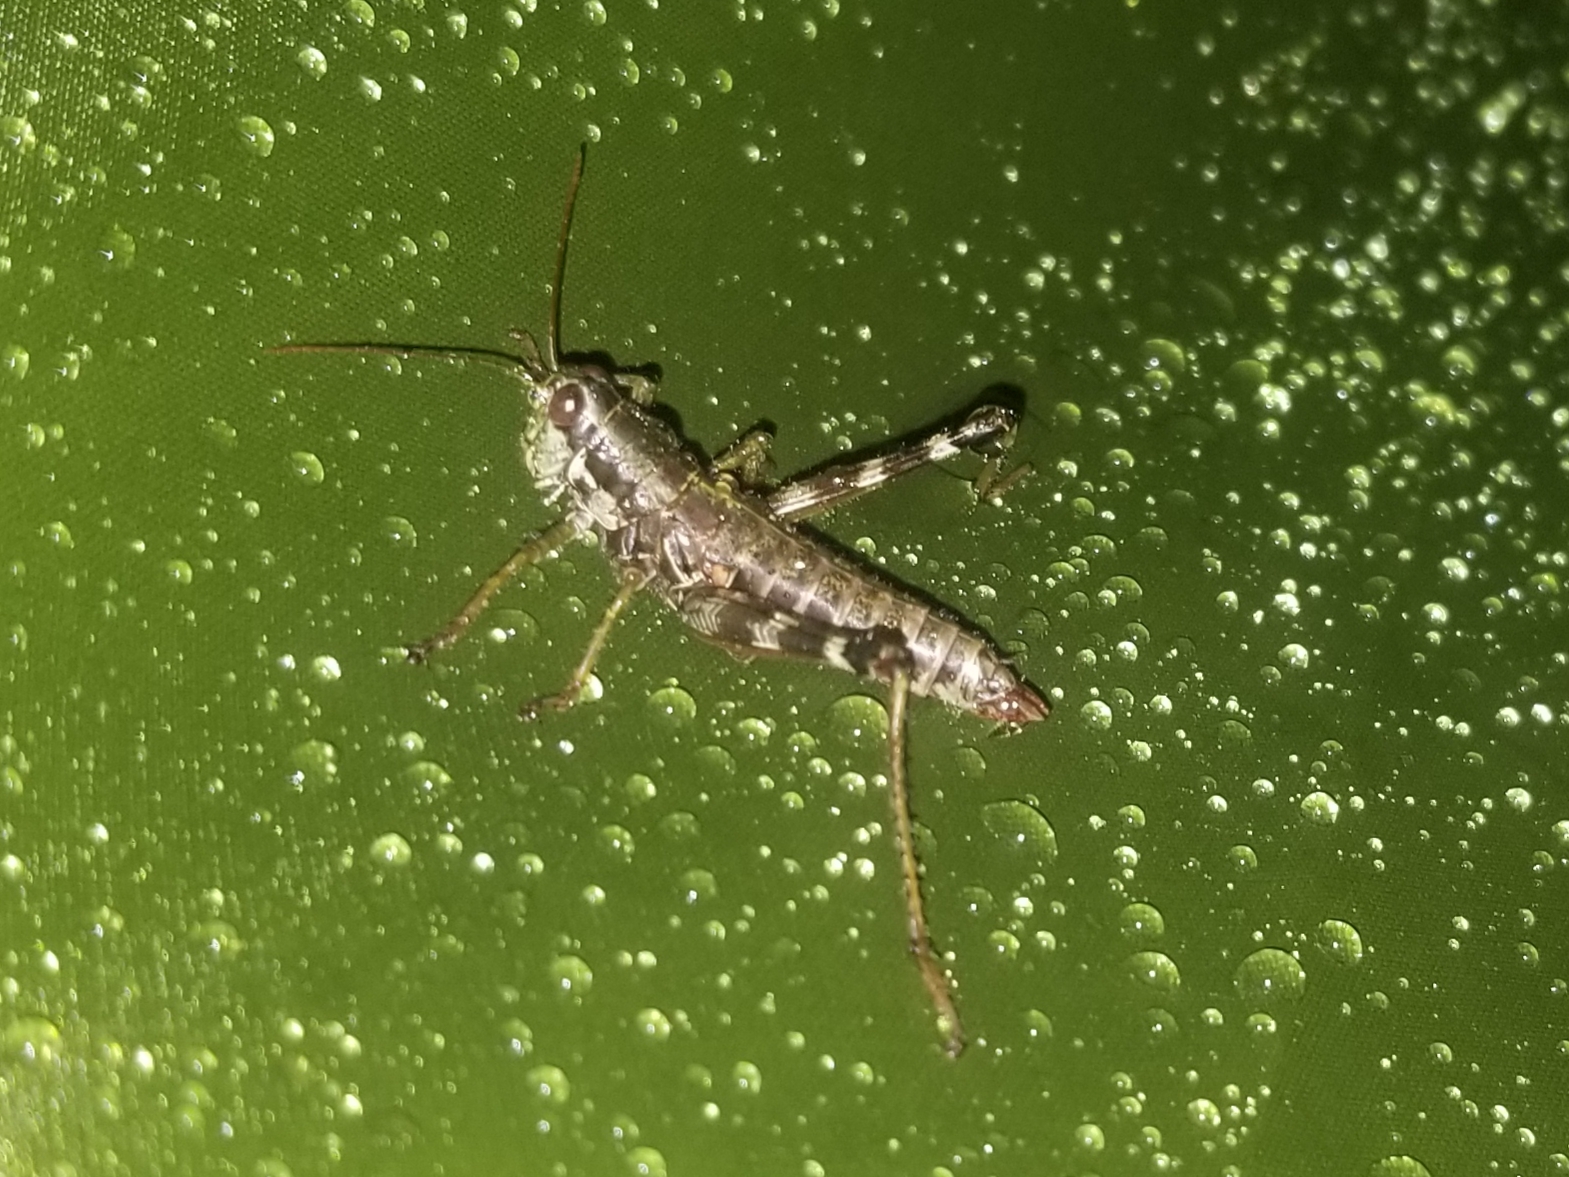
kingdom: Animalia
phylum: Arthropoda
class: Insecta
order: Orthoptera
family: Acrididae
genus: Booneacris
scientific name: Booneacris glacialis
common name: Wingless mountain grasshopper
